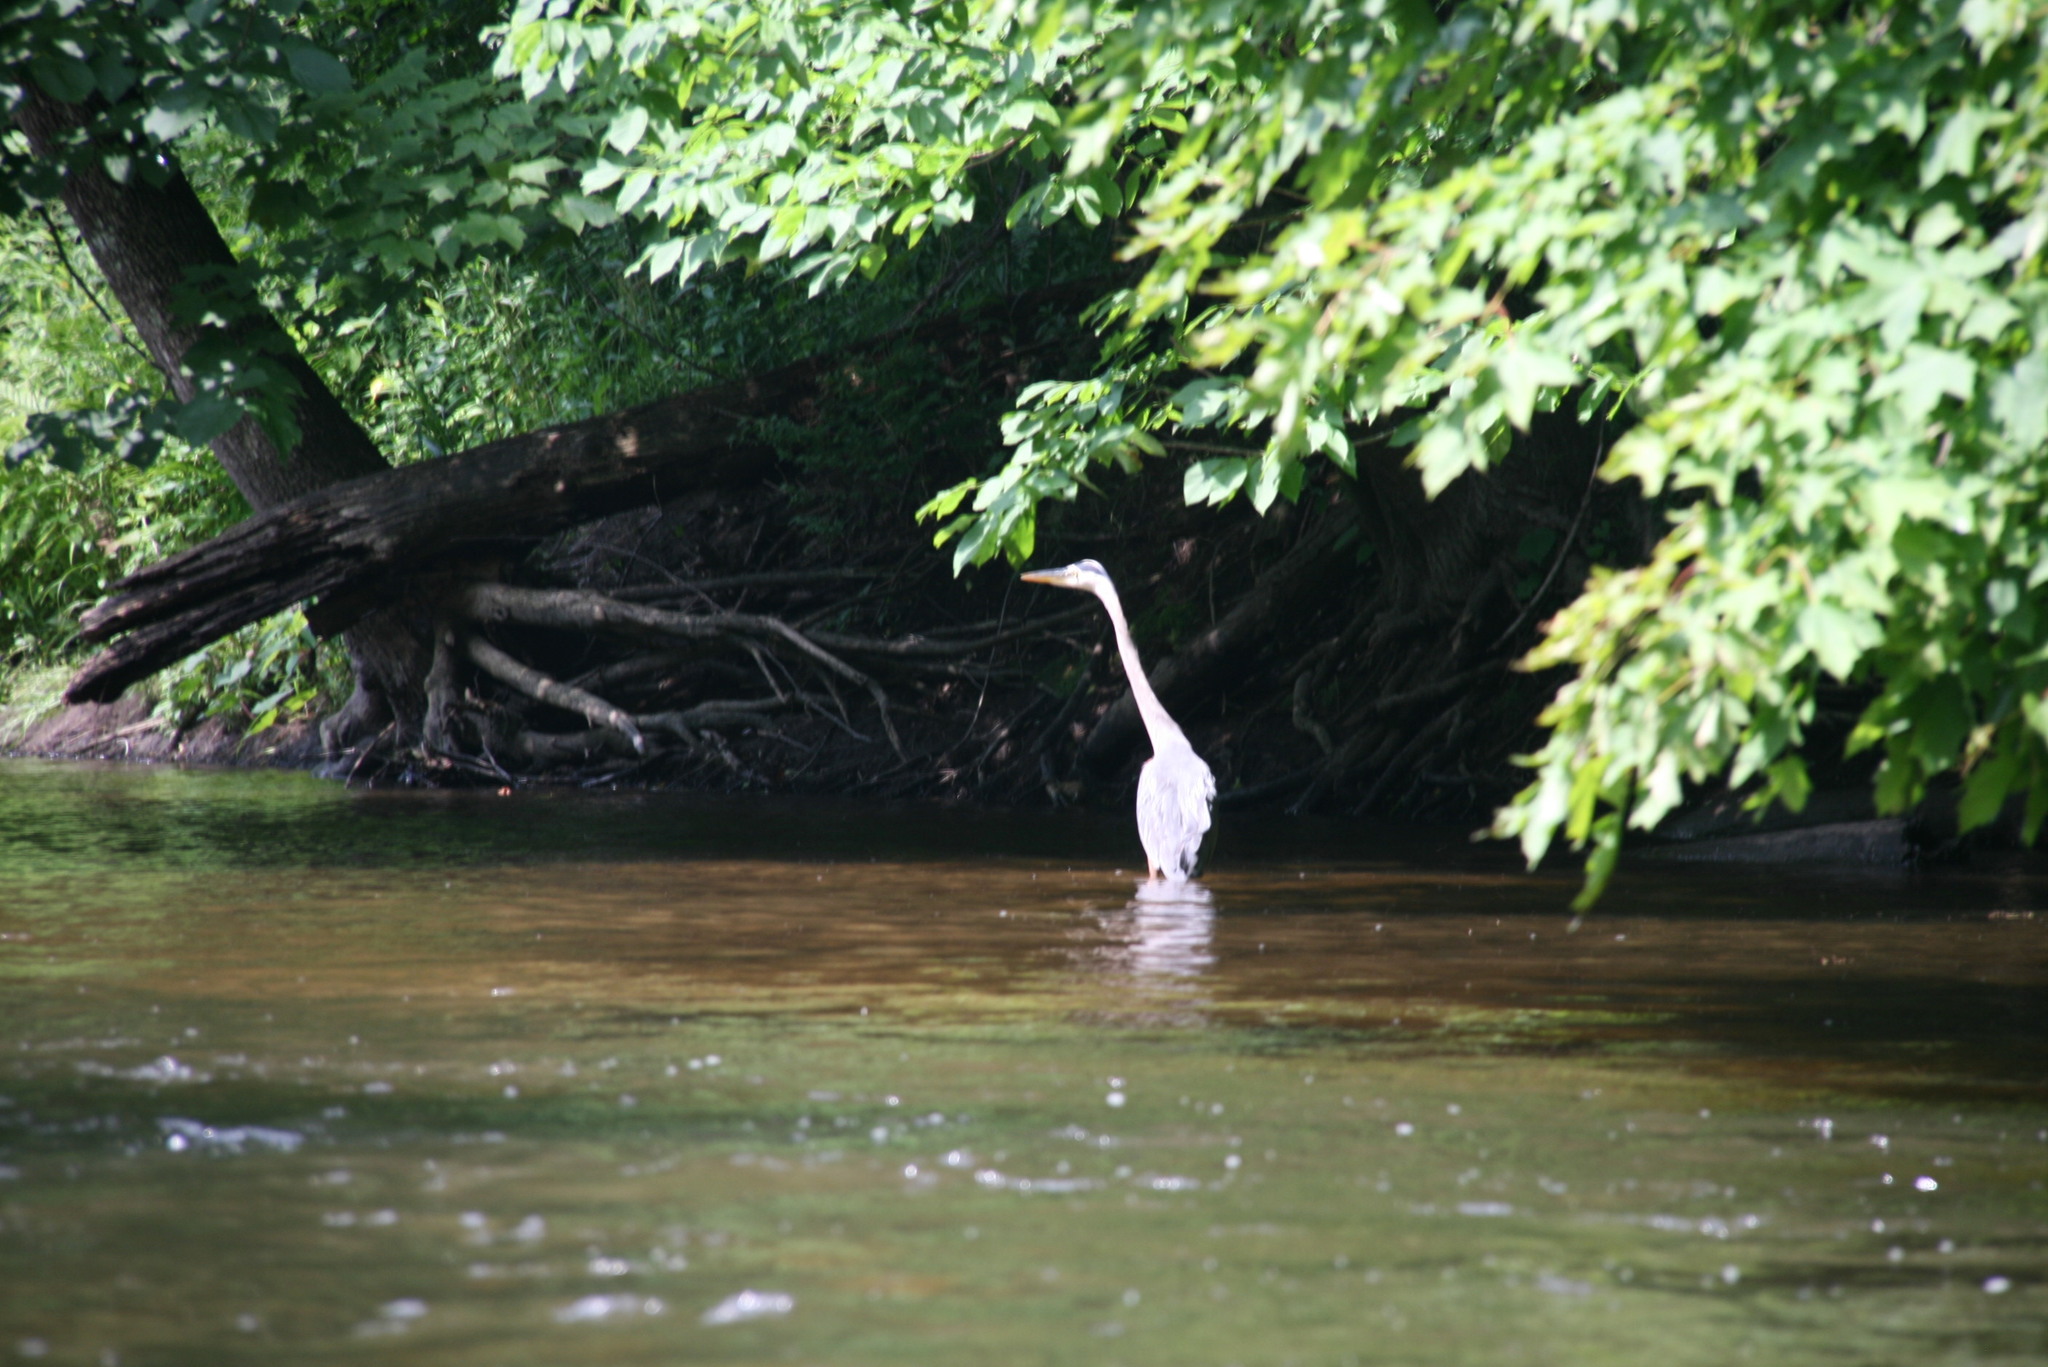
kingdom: Animalia
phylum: Chordata
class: Aves
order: Pelecaniformes
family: Ardeidae
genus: Ardea
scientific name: Ardea herodias
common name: Great blue heron
